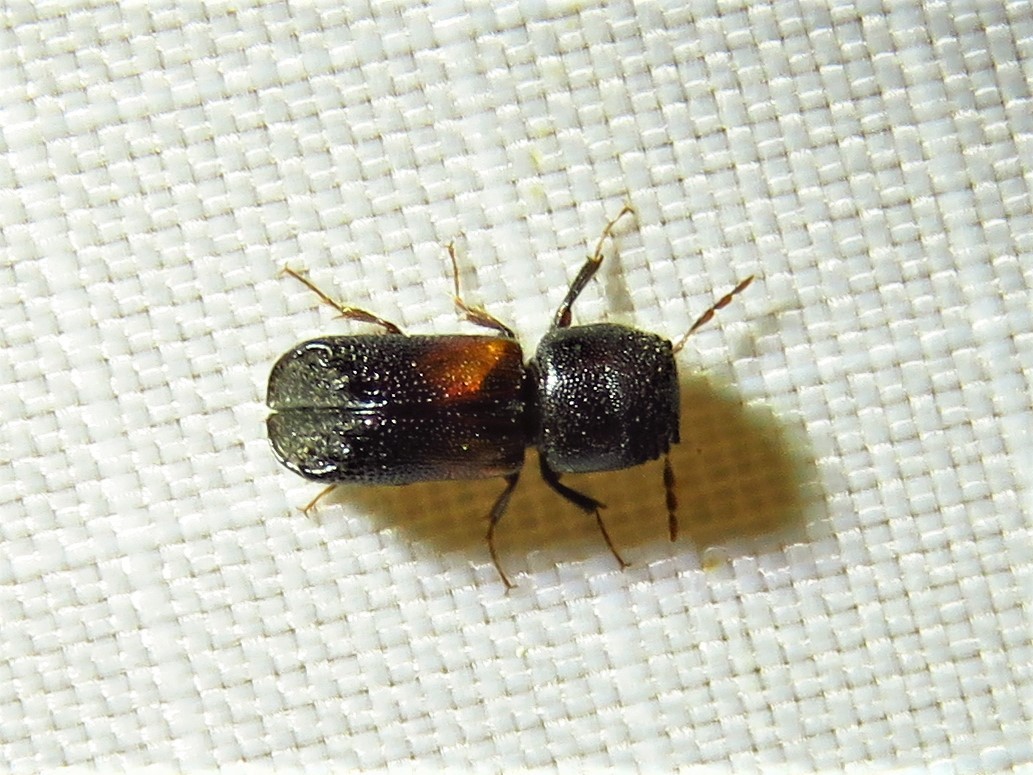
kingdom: Animalia
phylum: Arthropoda
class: Insecta
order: Coleoptera
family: Bostrichidae
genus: Xylobiops
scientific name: Xylobiops basilaris
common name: Red-shouldered bostrichid
